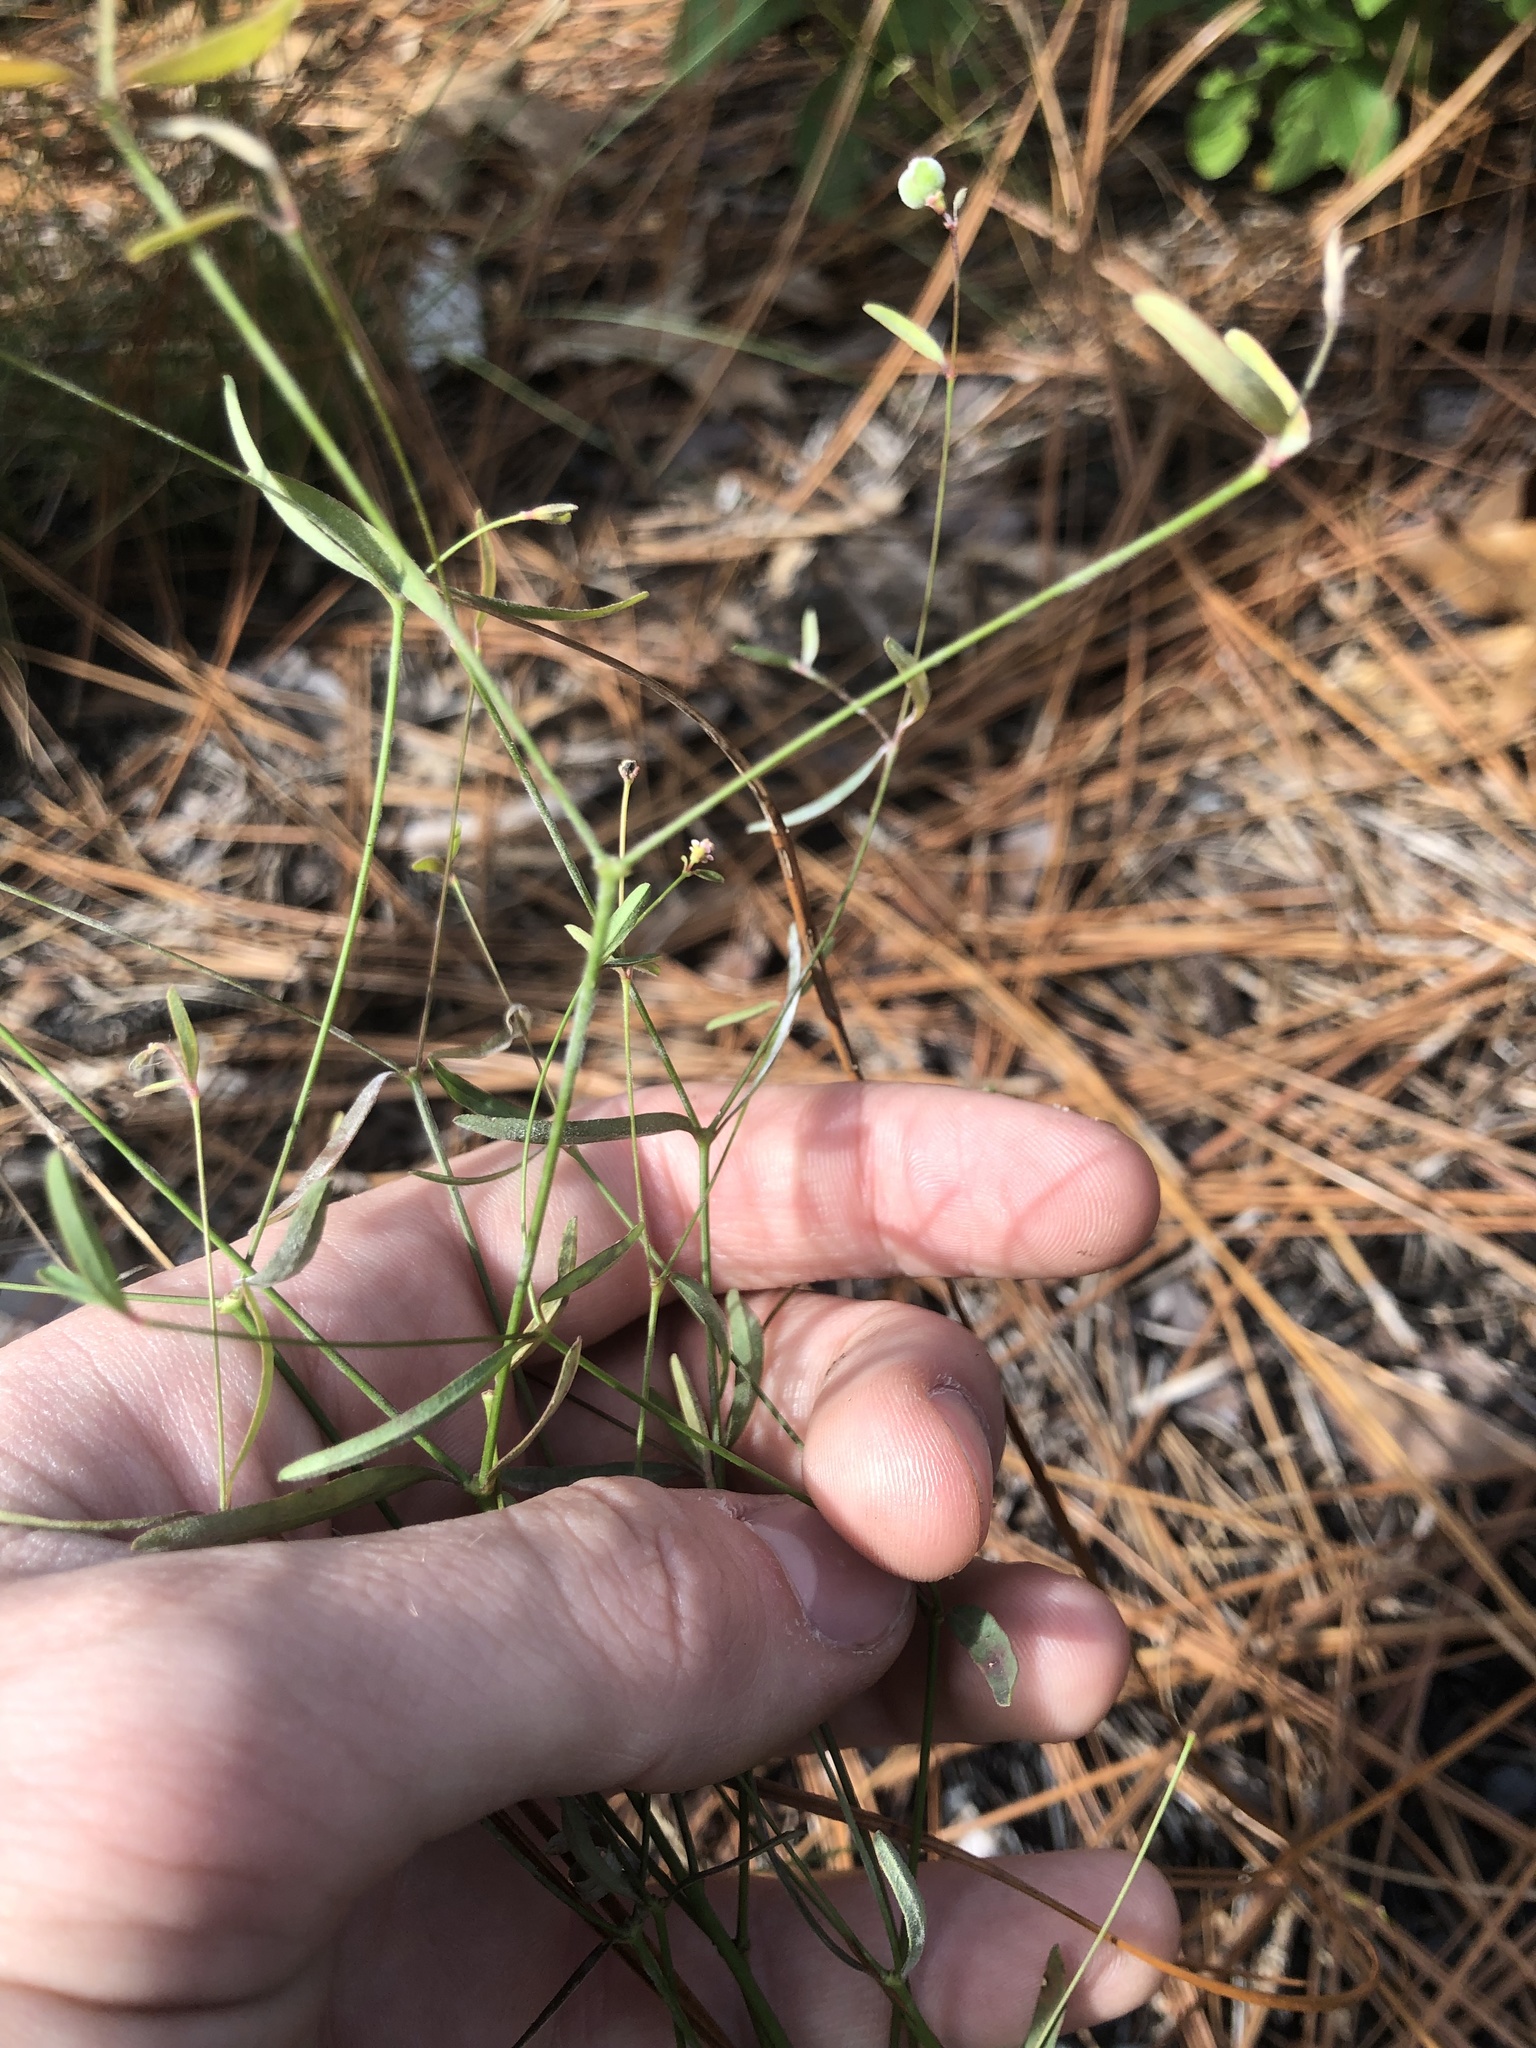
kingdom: Plantae
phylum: Tracheophyta
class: Magnoliopsida
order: Malpighiales
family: Euphorbiaceae
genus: Euphorbia
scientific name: Euphorbia curtisii
